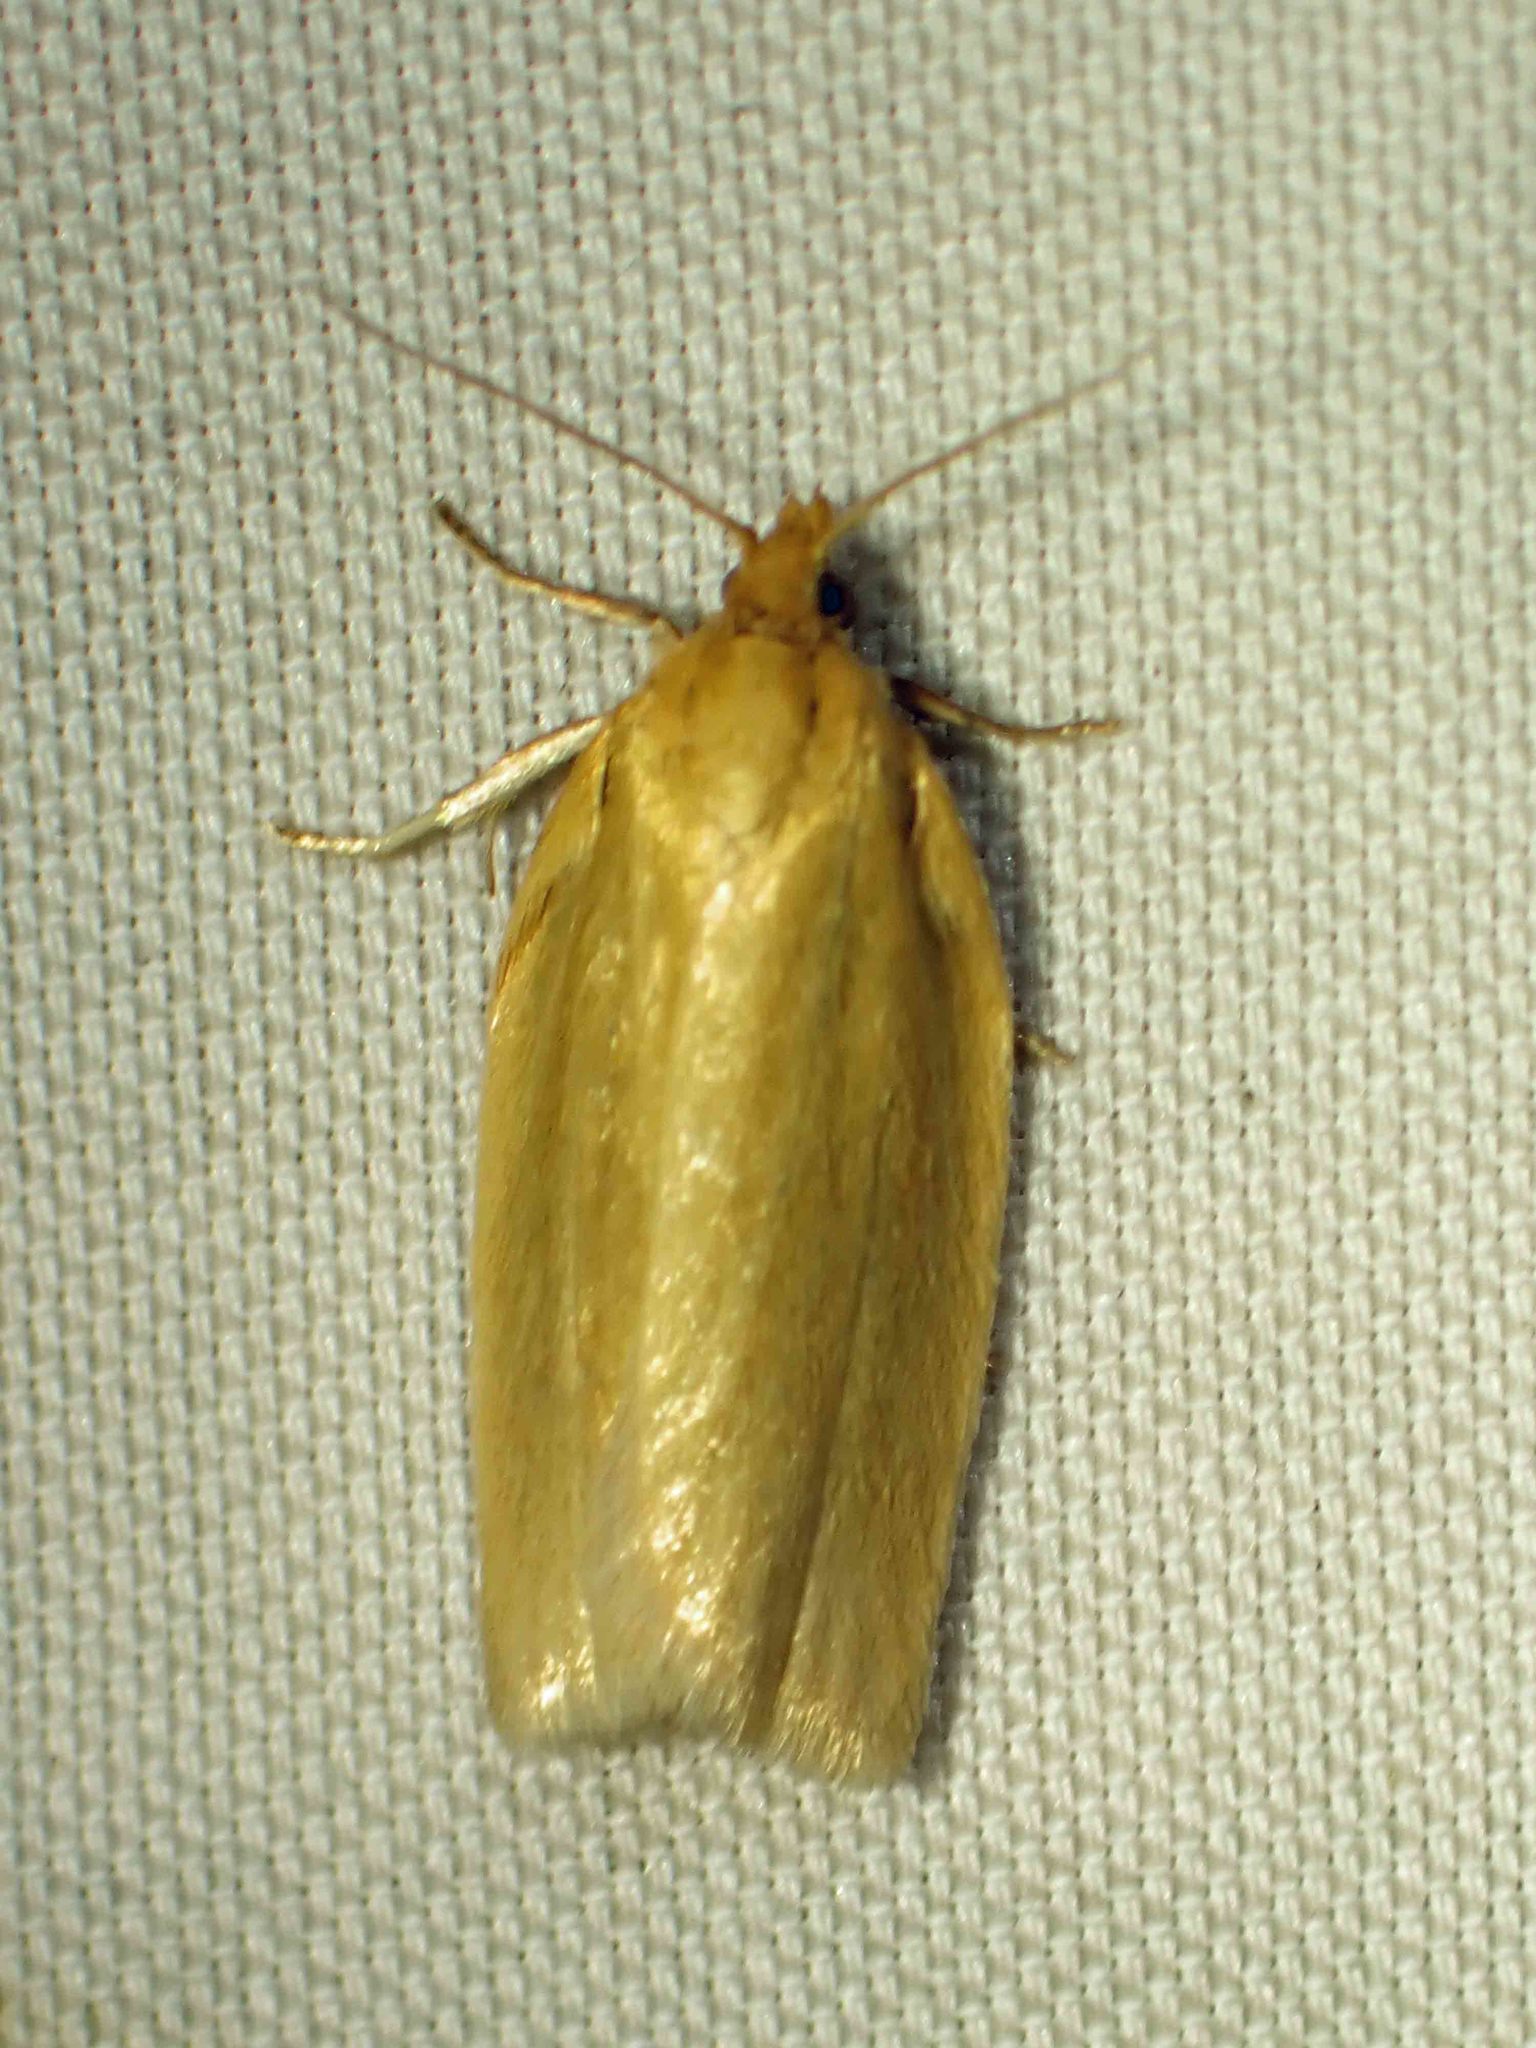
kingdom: Animalia
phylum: Arthropoda
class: Insecta
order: Lepidoptera
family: Tortricidae
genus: Clepsis
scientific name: Clepsis clemensiana
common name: Clemens' clepsis moth
